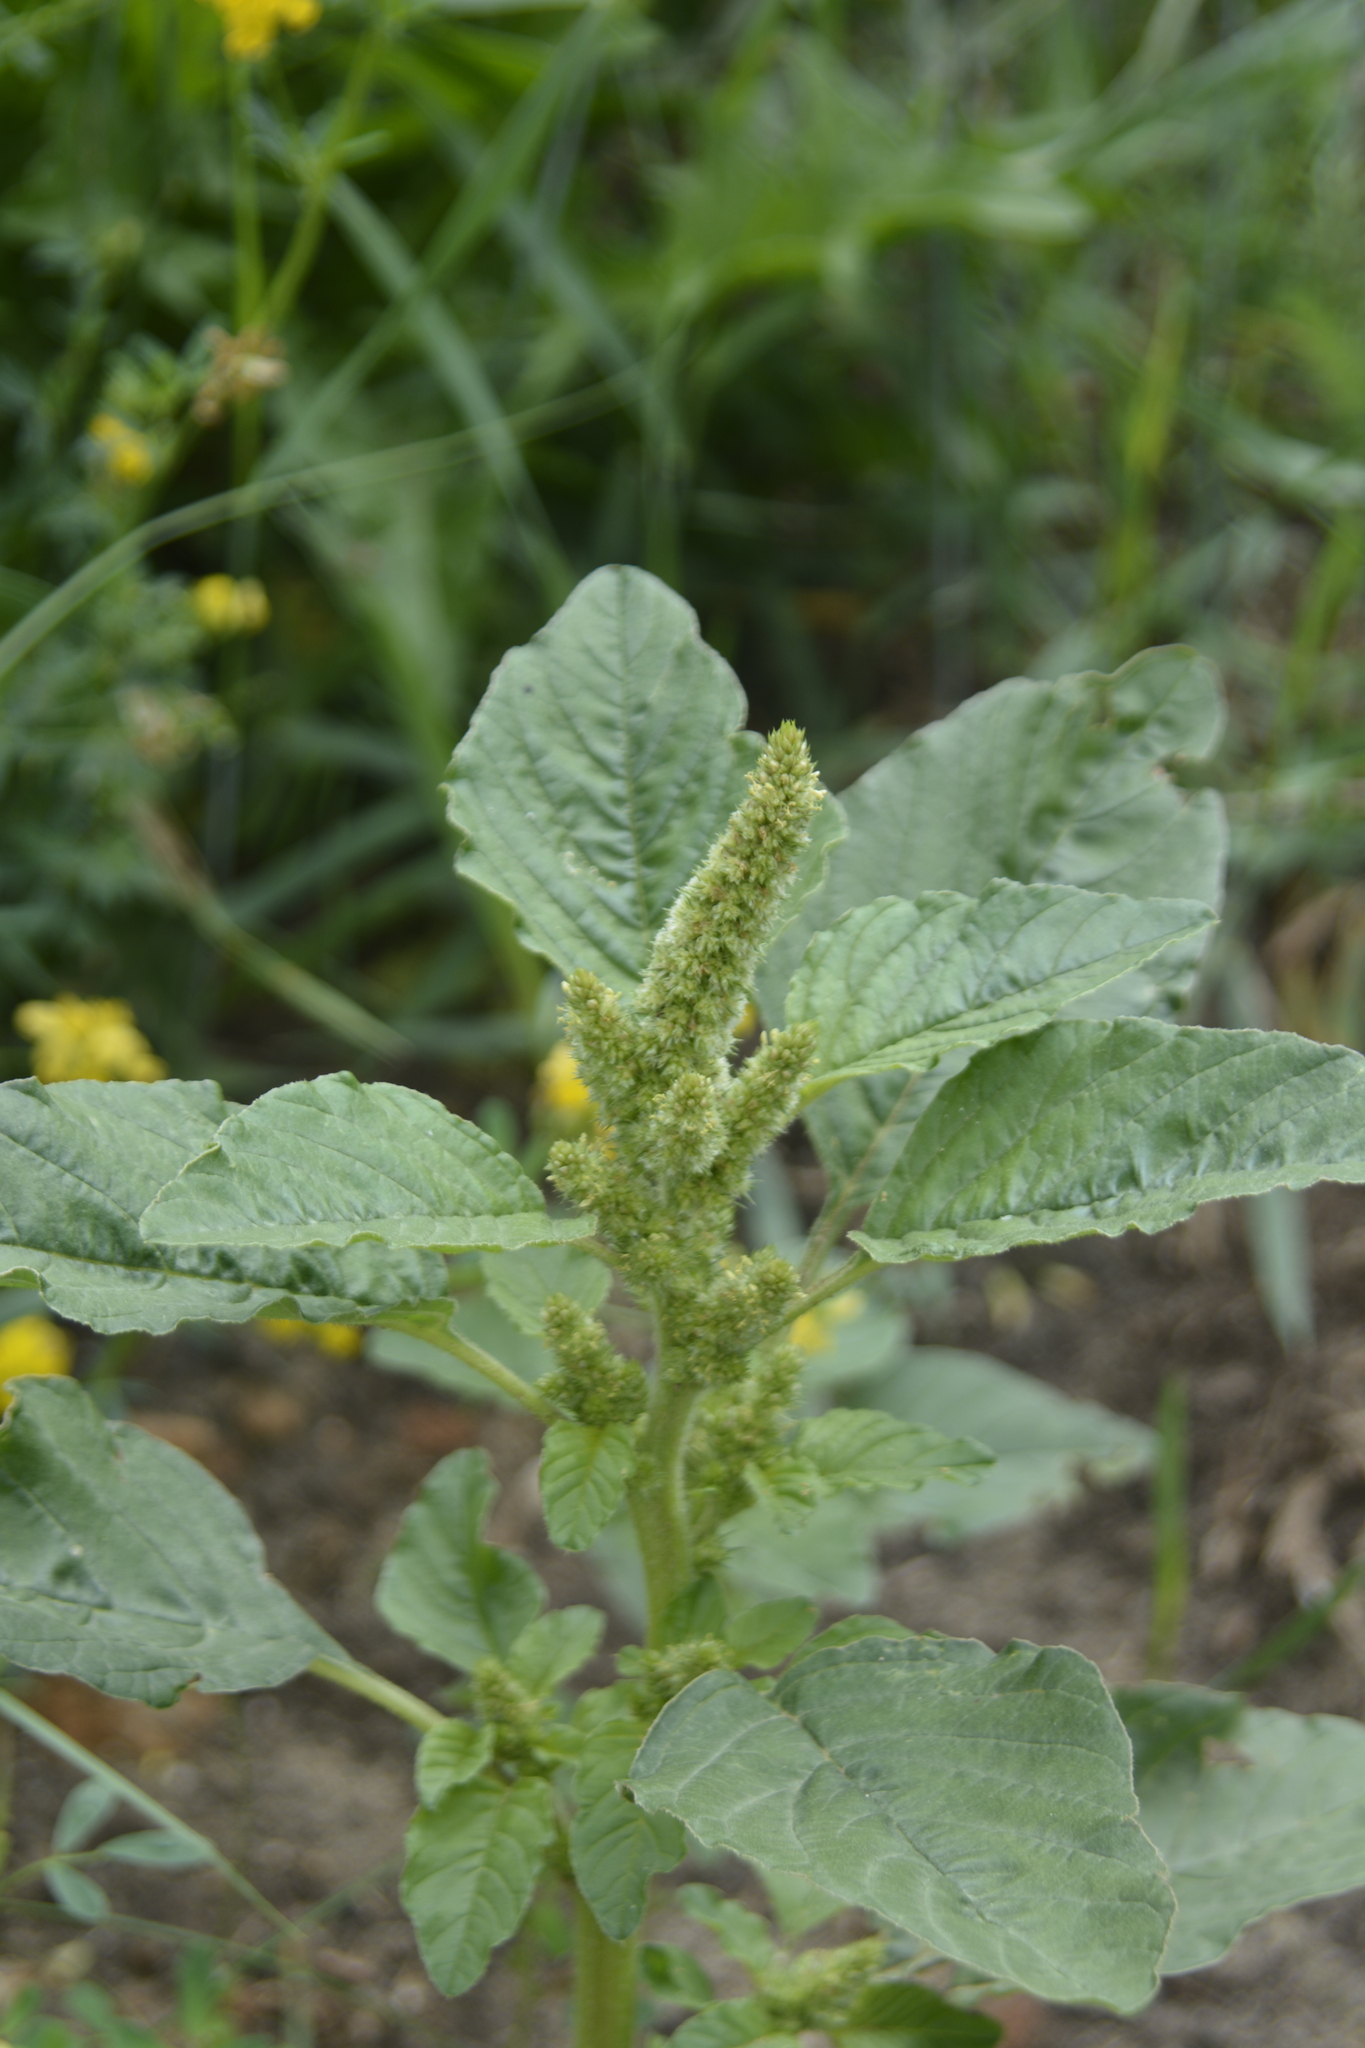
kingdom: Plantae
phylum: Tracheophyta
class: Magnoliopsida
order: Caryophyllales
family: Amaranthaceae
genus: Amaranthus
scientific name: Amaranthus retroflexus
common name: Redroot amaranth
